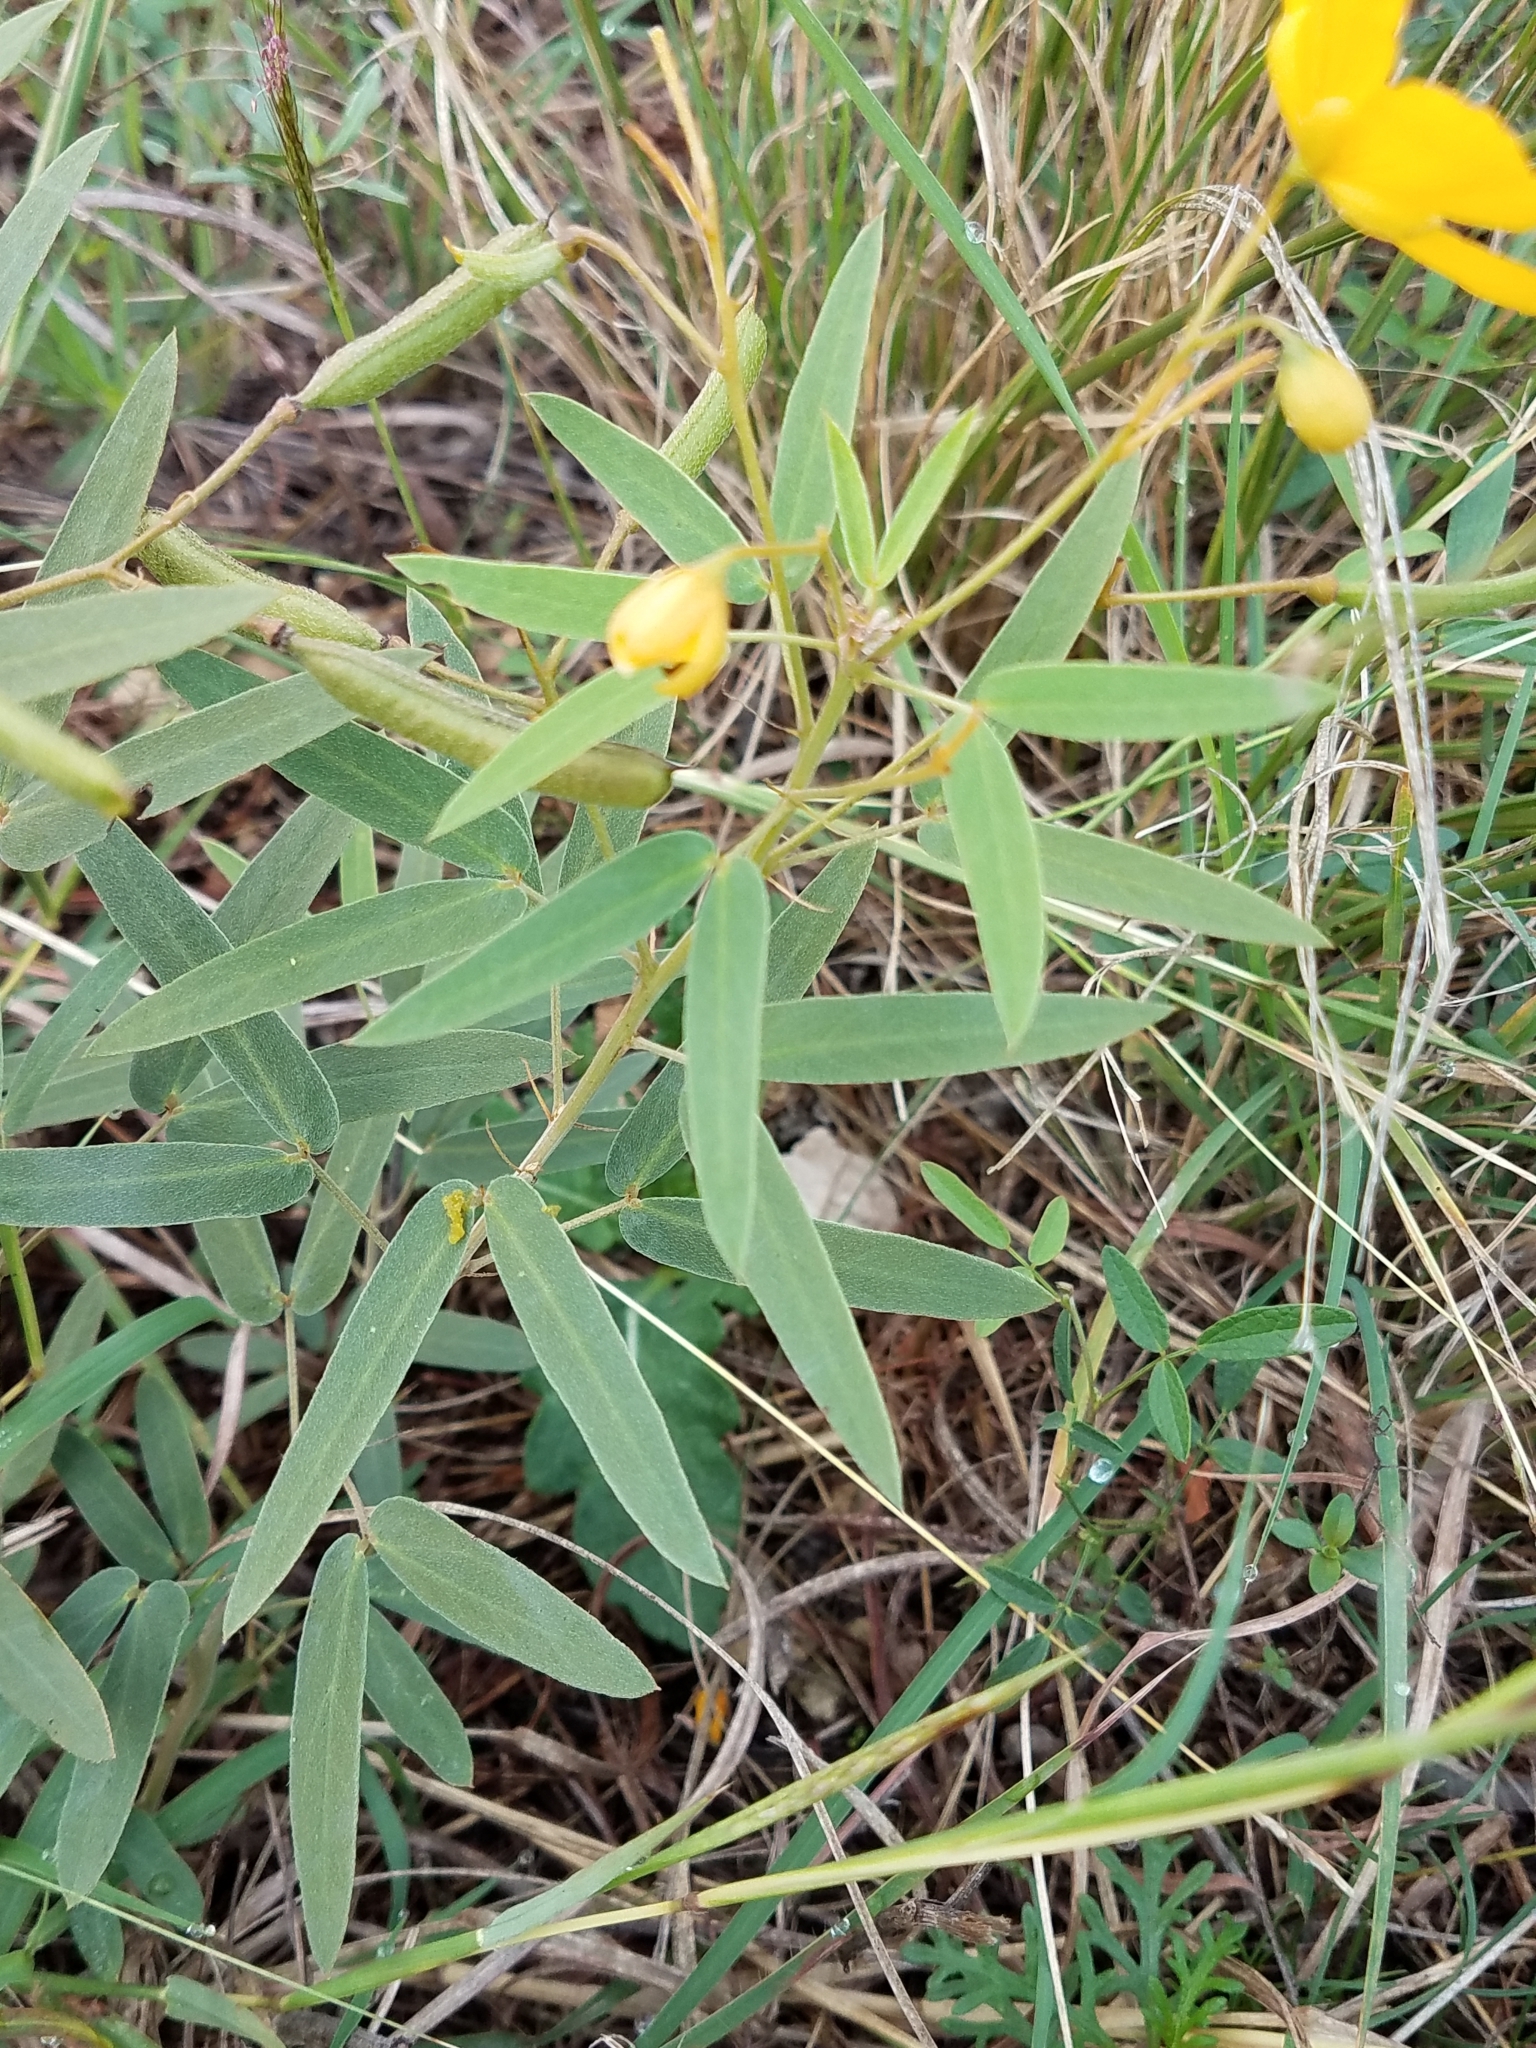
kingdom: Plantae
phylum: Tracheophyta
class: Magnoliopsida
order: Fabales
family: Fabaceae
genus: Senna
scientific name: Senna roemeriana
